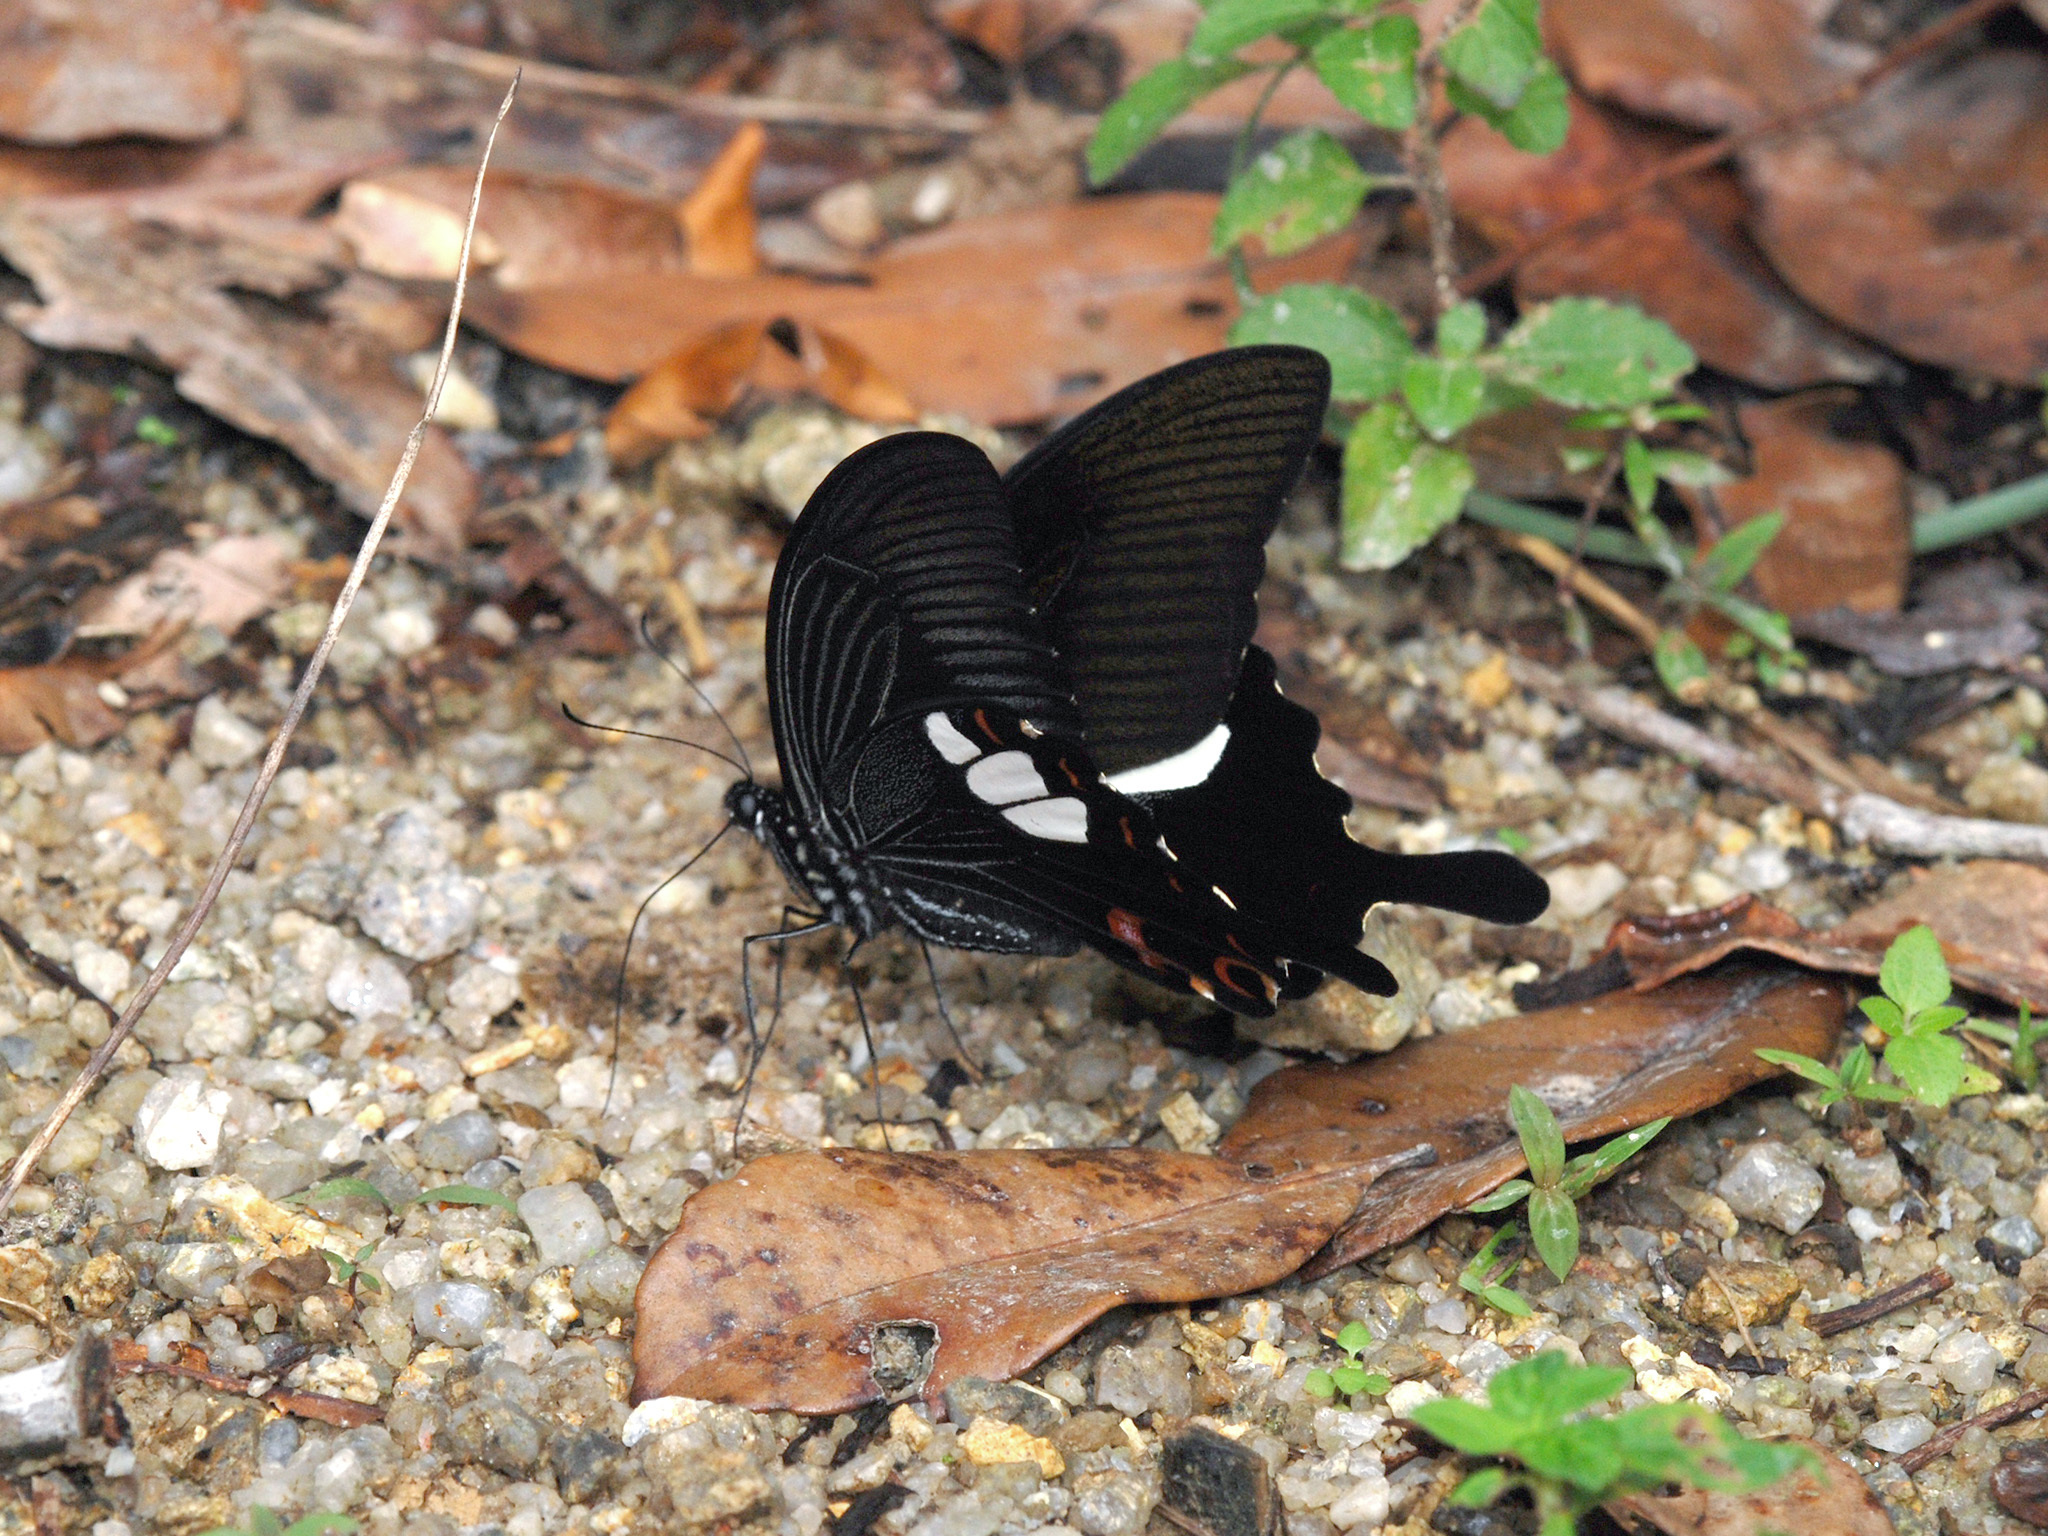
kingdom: Animalia
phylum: Arthropoda
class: Insecta
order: Lepidoptera
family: Papilionidae
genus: Papilio
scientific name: Papilio helenus
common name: Red helen
